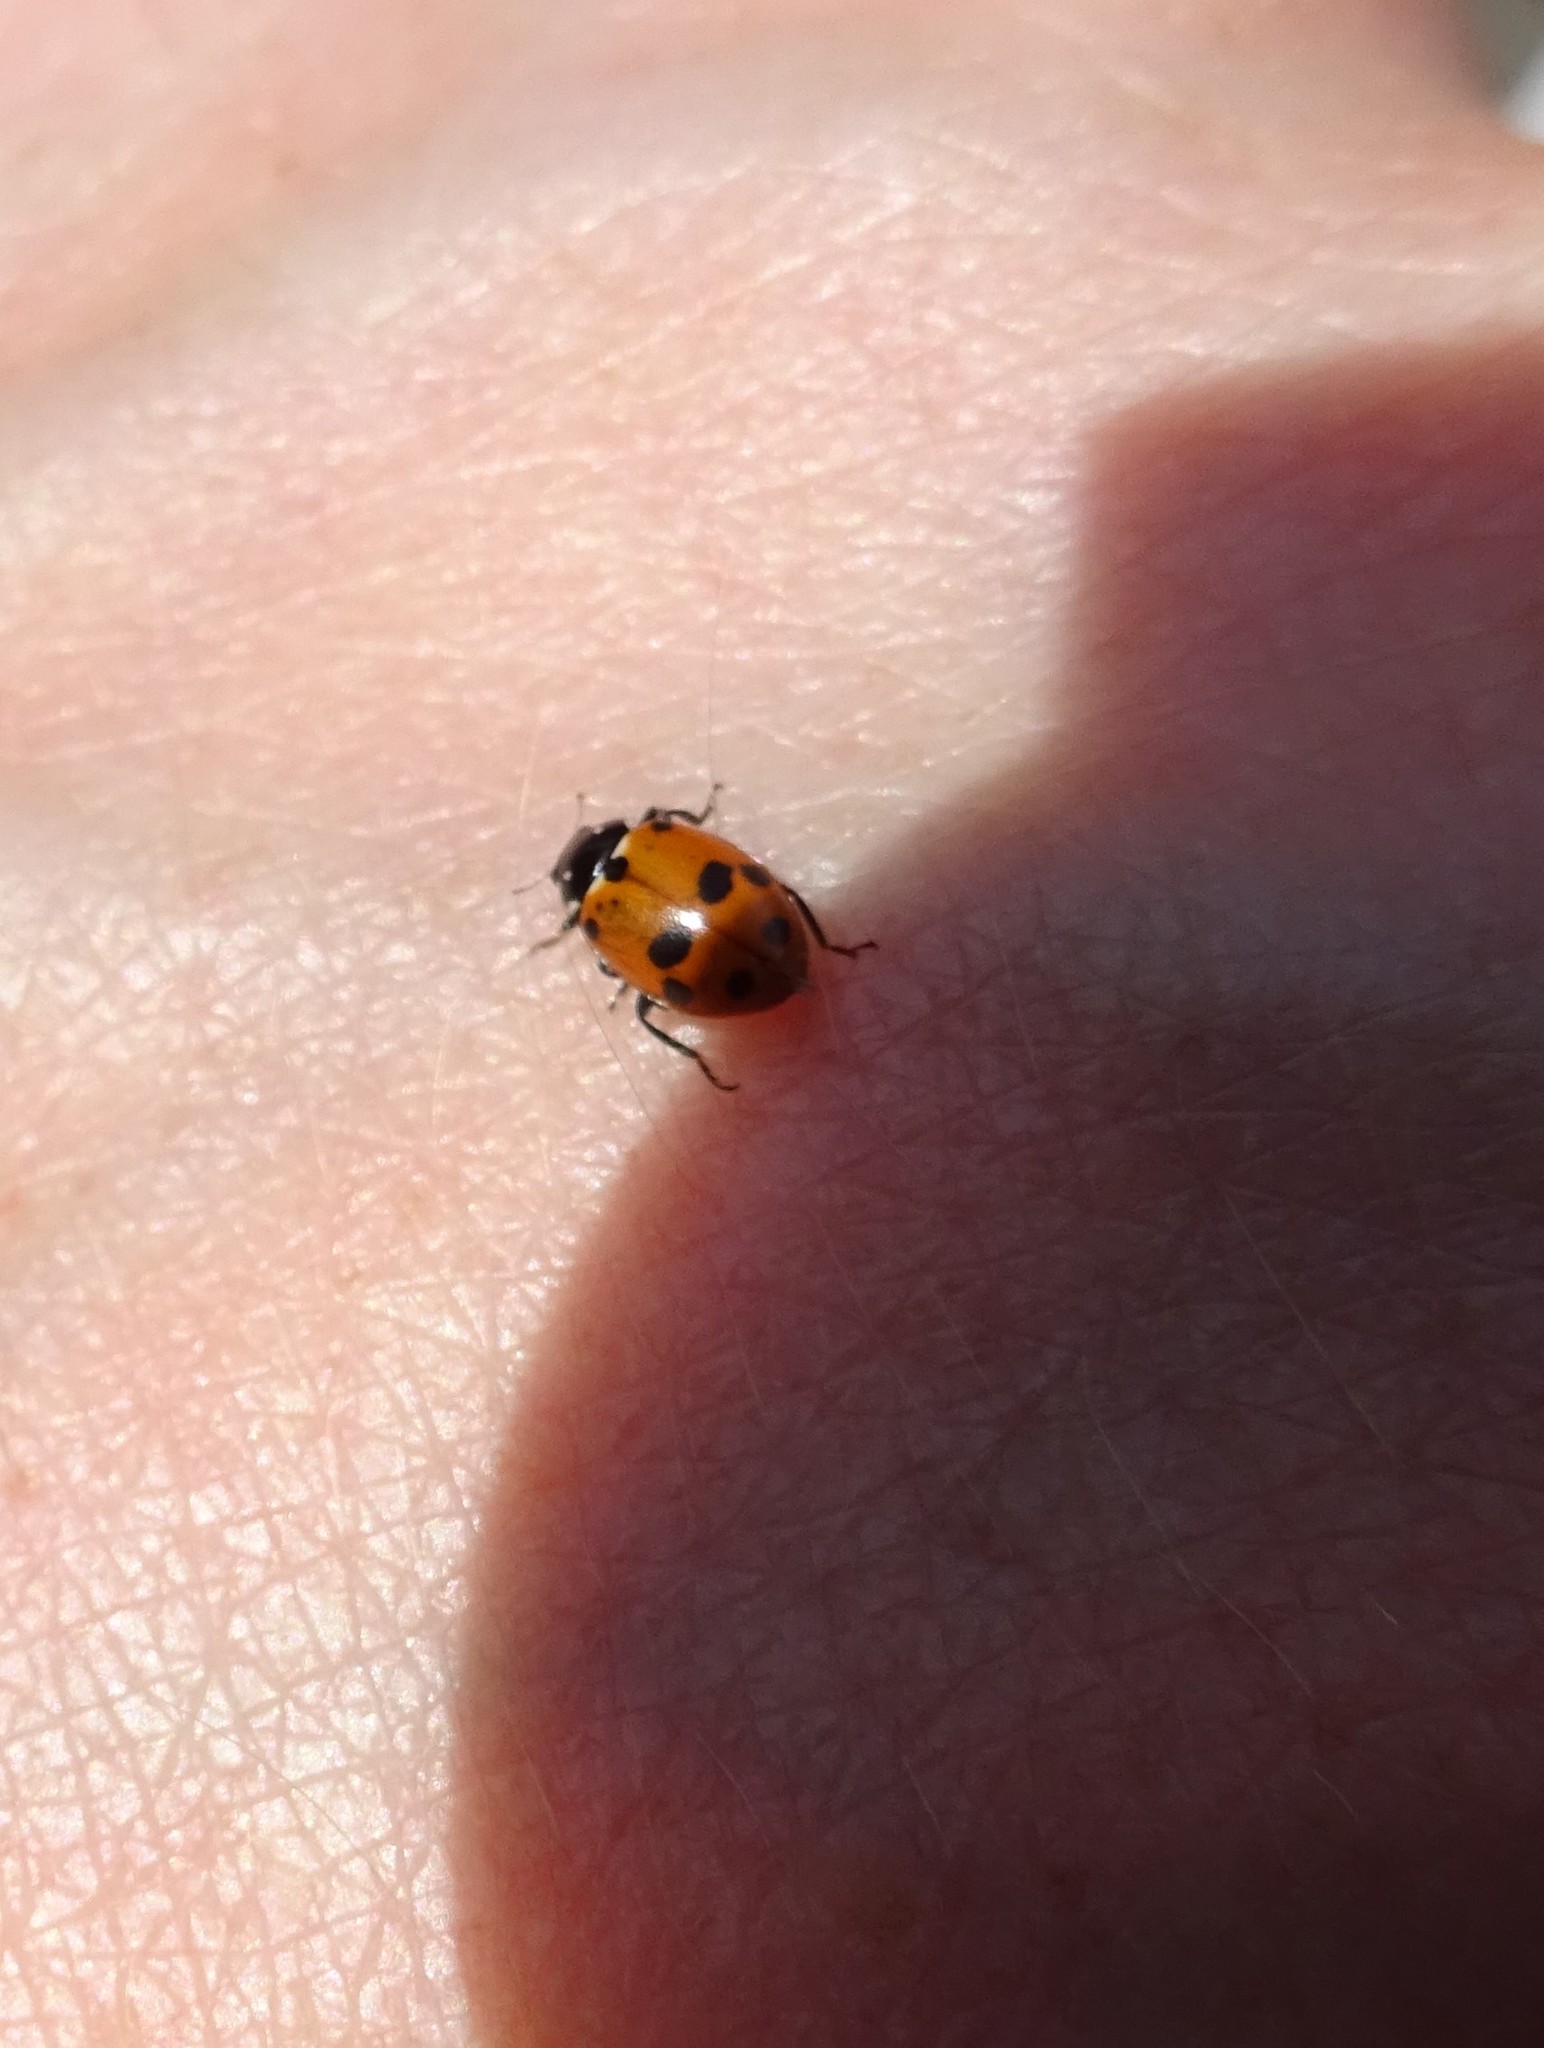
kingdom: Animalia
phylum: Arthropoda
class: Insecta
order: Coleoptera
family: Coccinellidae
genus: Hippodamia
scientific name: Hippodamia variegata
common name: Ladybird beetle
